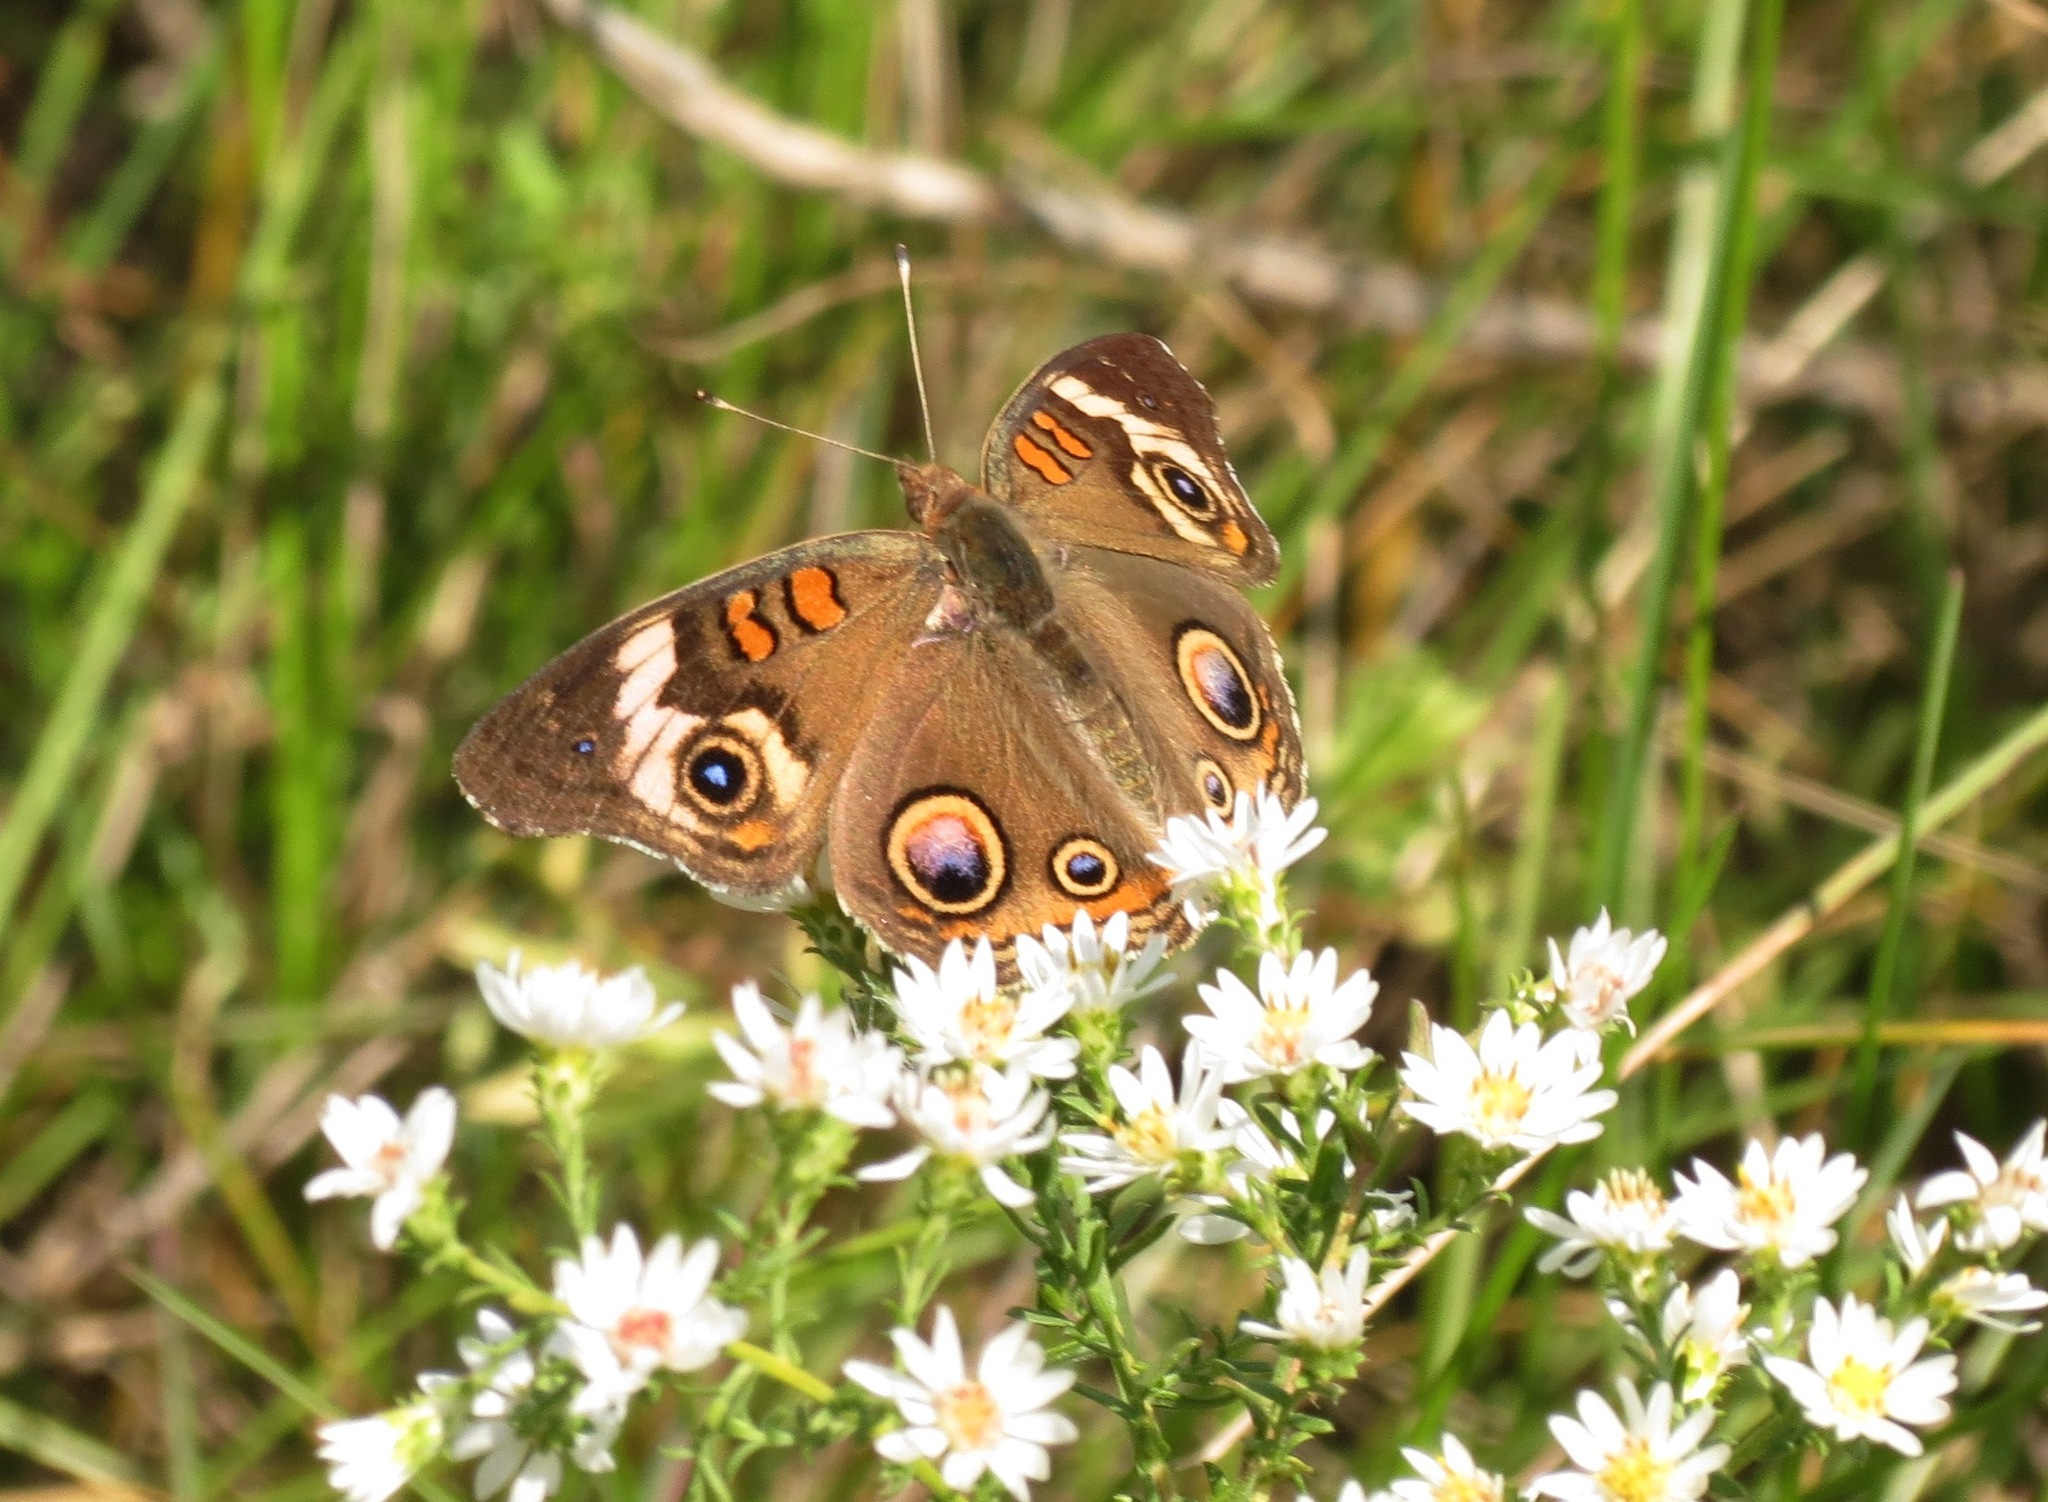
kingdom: Animalia
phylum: Arthropoda
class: Insecta
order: Lepidoptera
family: Nymphalidae
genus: Junonia
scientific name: Junonia coenia
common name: Common buckeye
